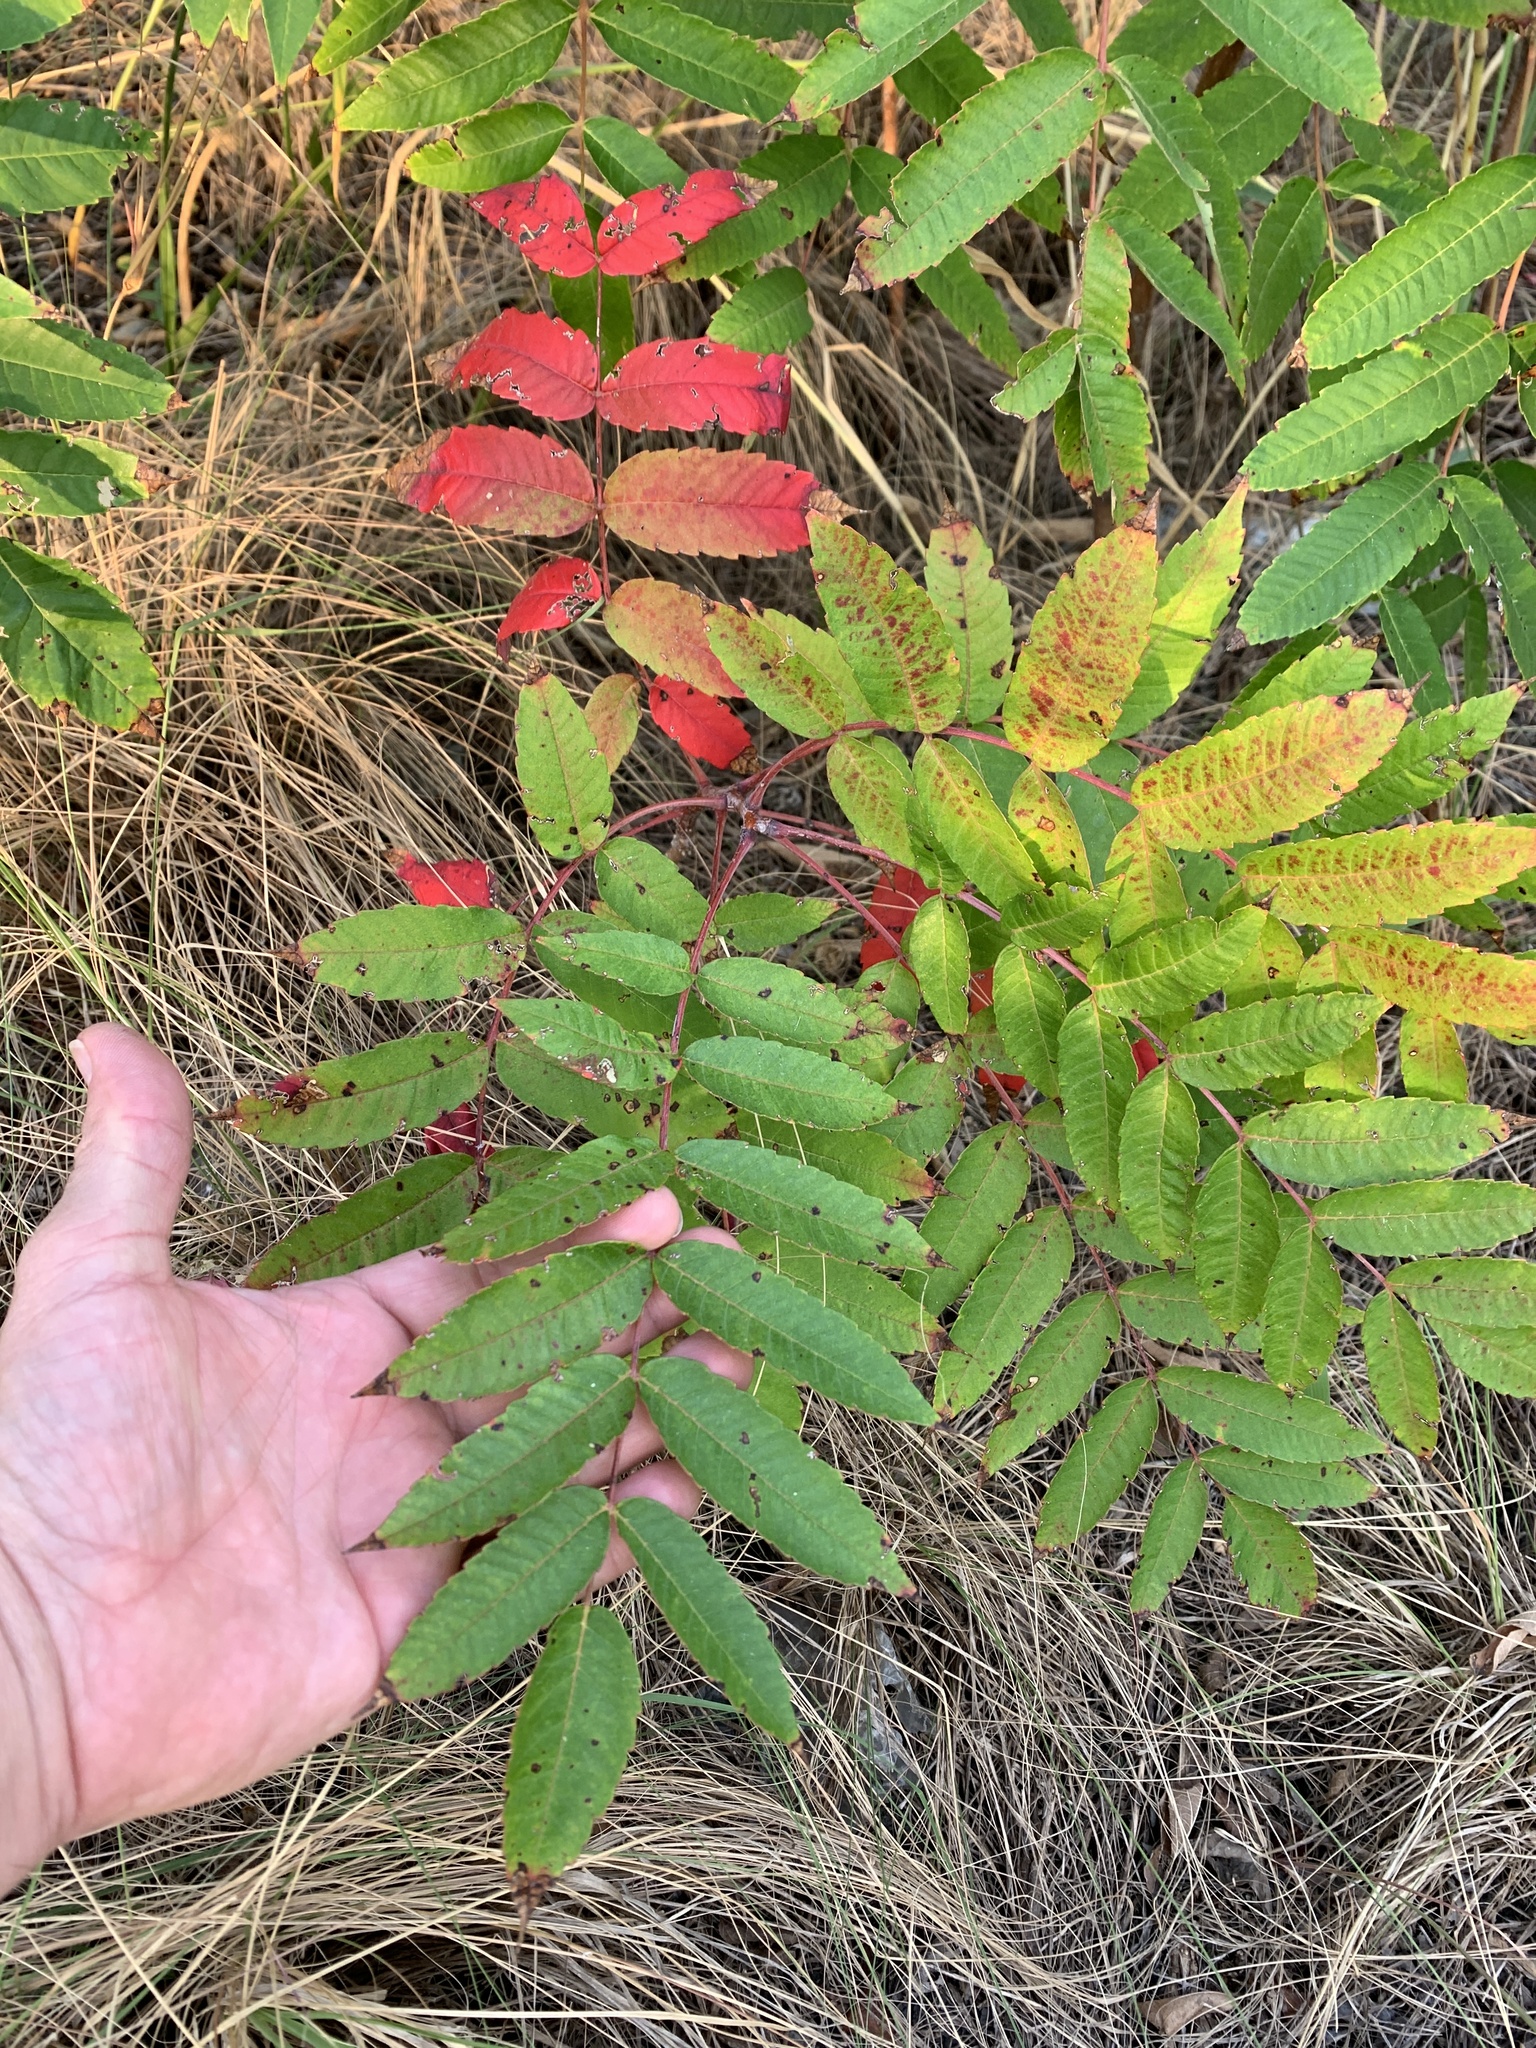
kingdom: Plantae
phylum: Tracheophyta
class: Magnoliopsida
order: Sapindales
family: Anacardiaceae
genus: Rhus
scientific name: Rhus glabra
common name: Scarlet sumac
